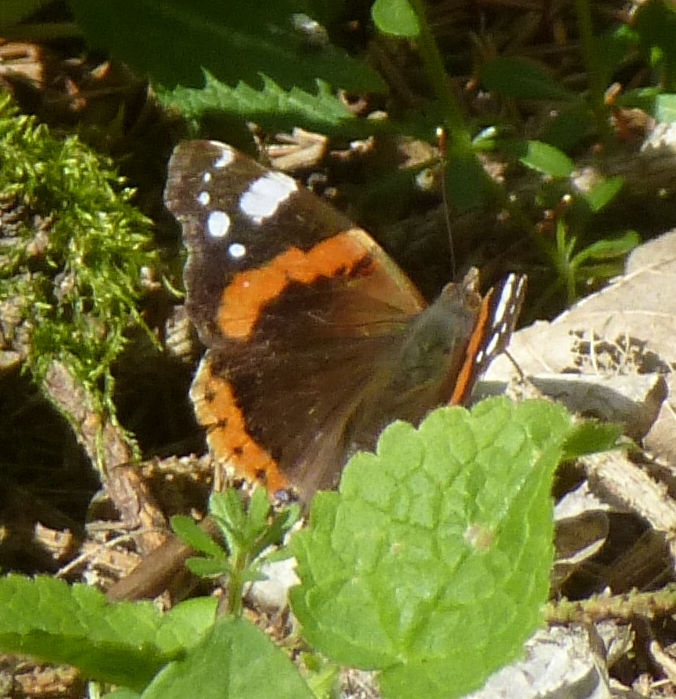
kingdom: Animalia
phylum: Arthropoda
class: Insecta
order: Lepidoptera
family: Nymphalidae
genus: Vanessa
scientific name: Vanessa atalanta
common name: Red admiral
